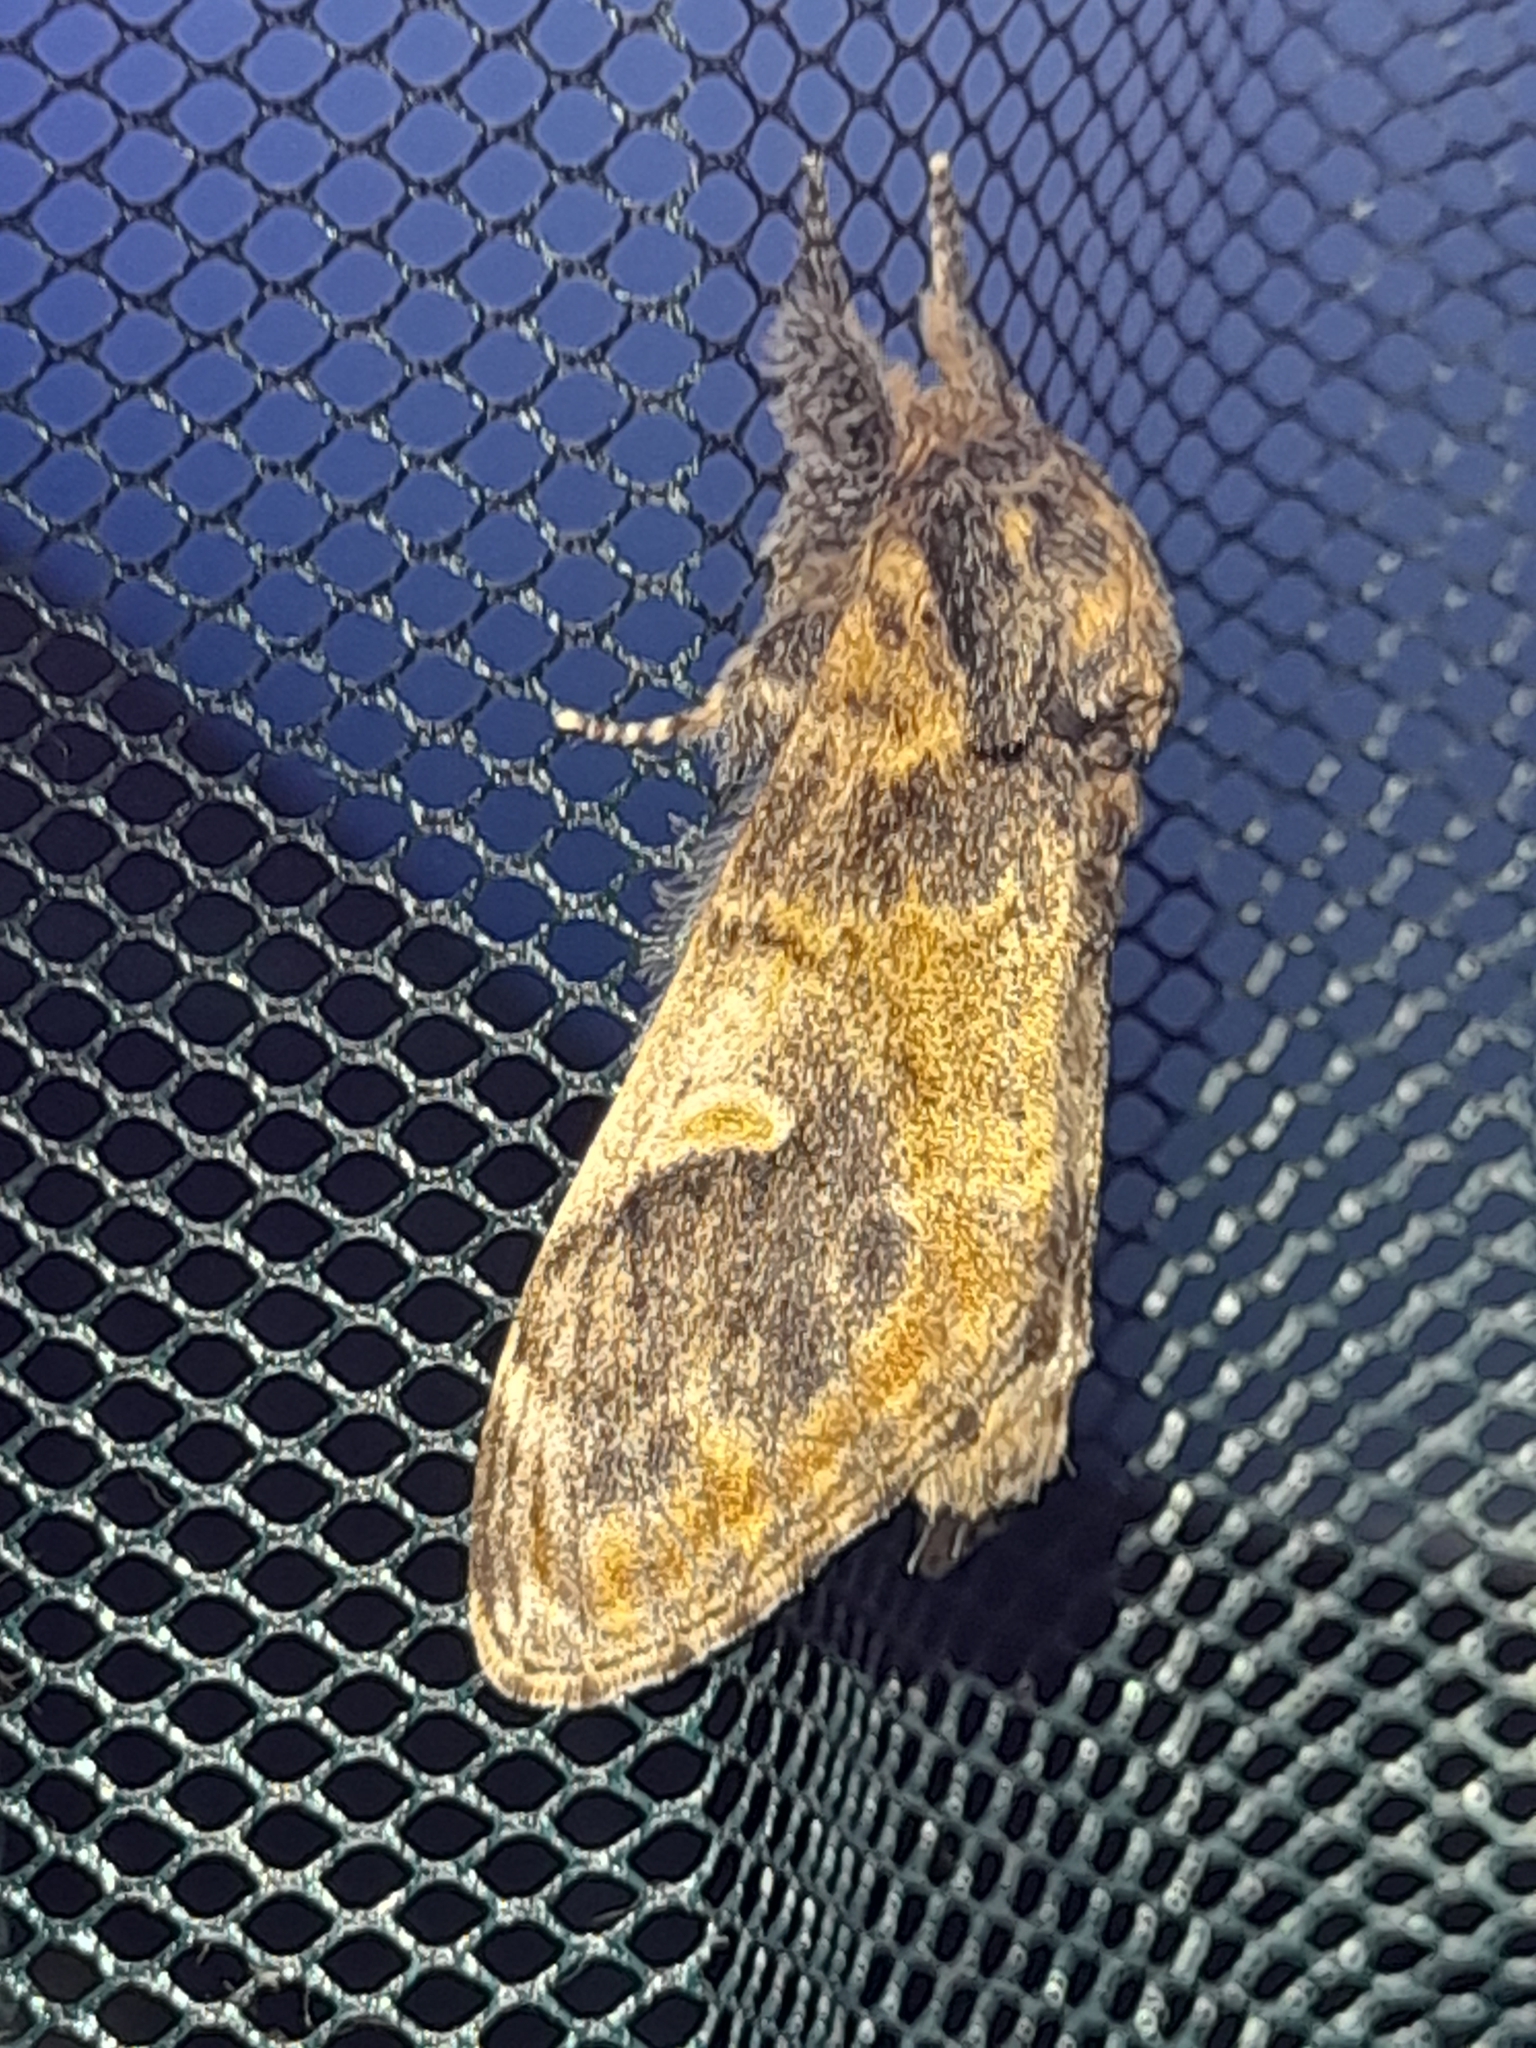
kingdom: Animalia
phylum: Arthropoda
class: Insecta
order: Lepidoptera
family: Notodontidae
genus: Notodonta
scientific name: Notodonta tritophus
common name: Three-humped prominent
